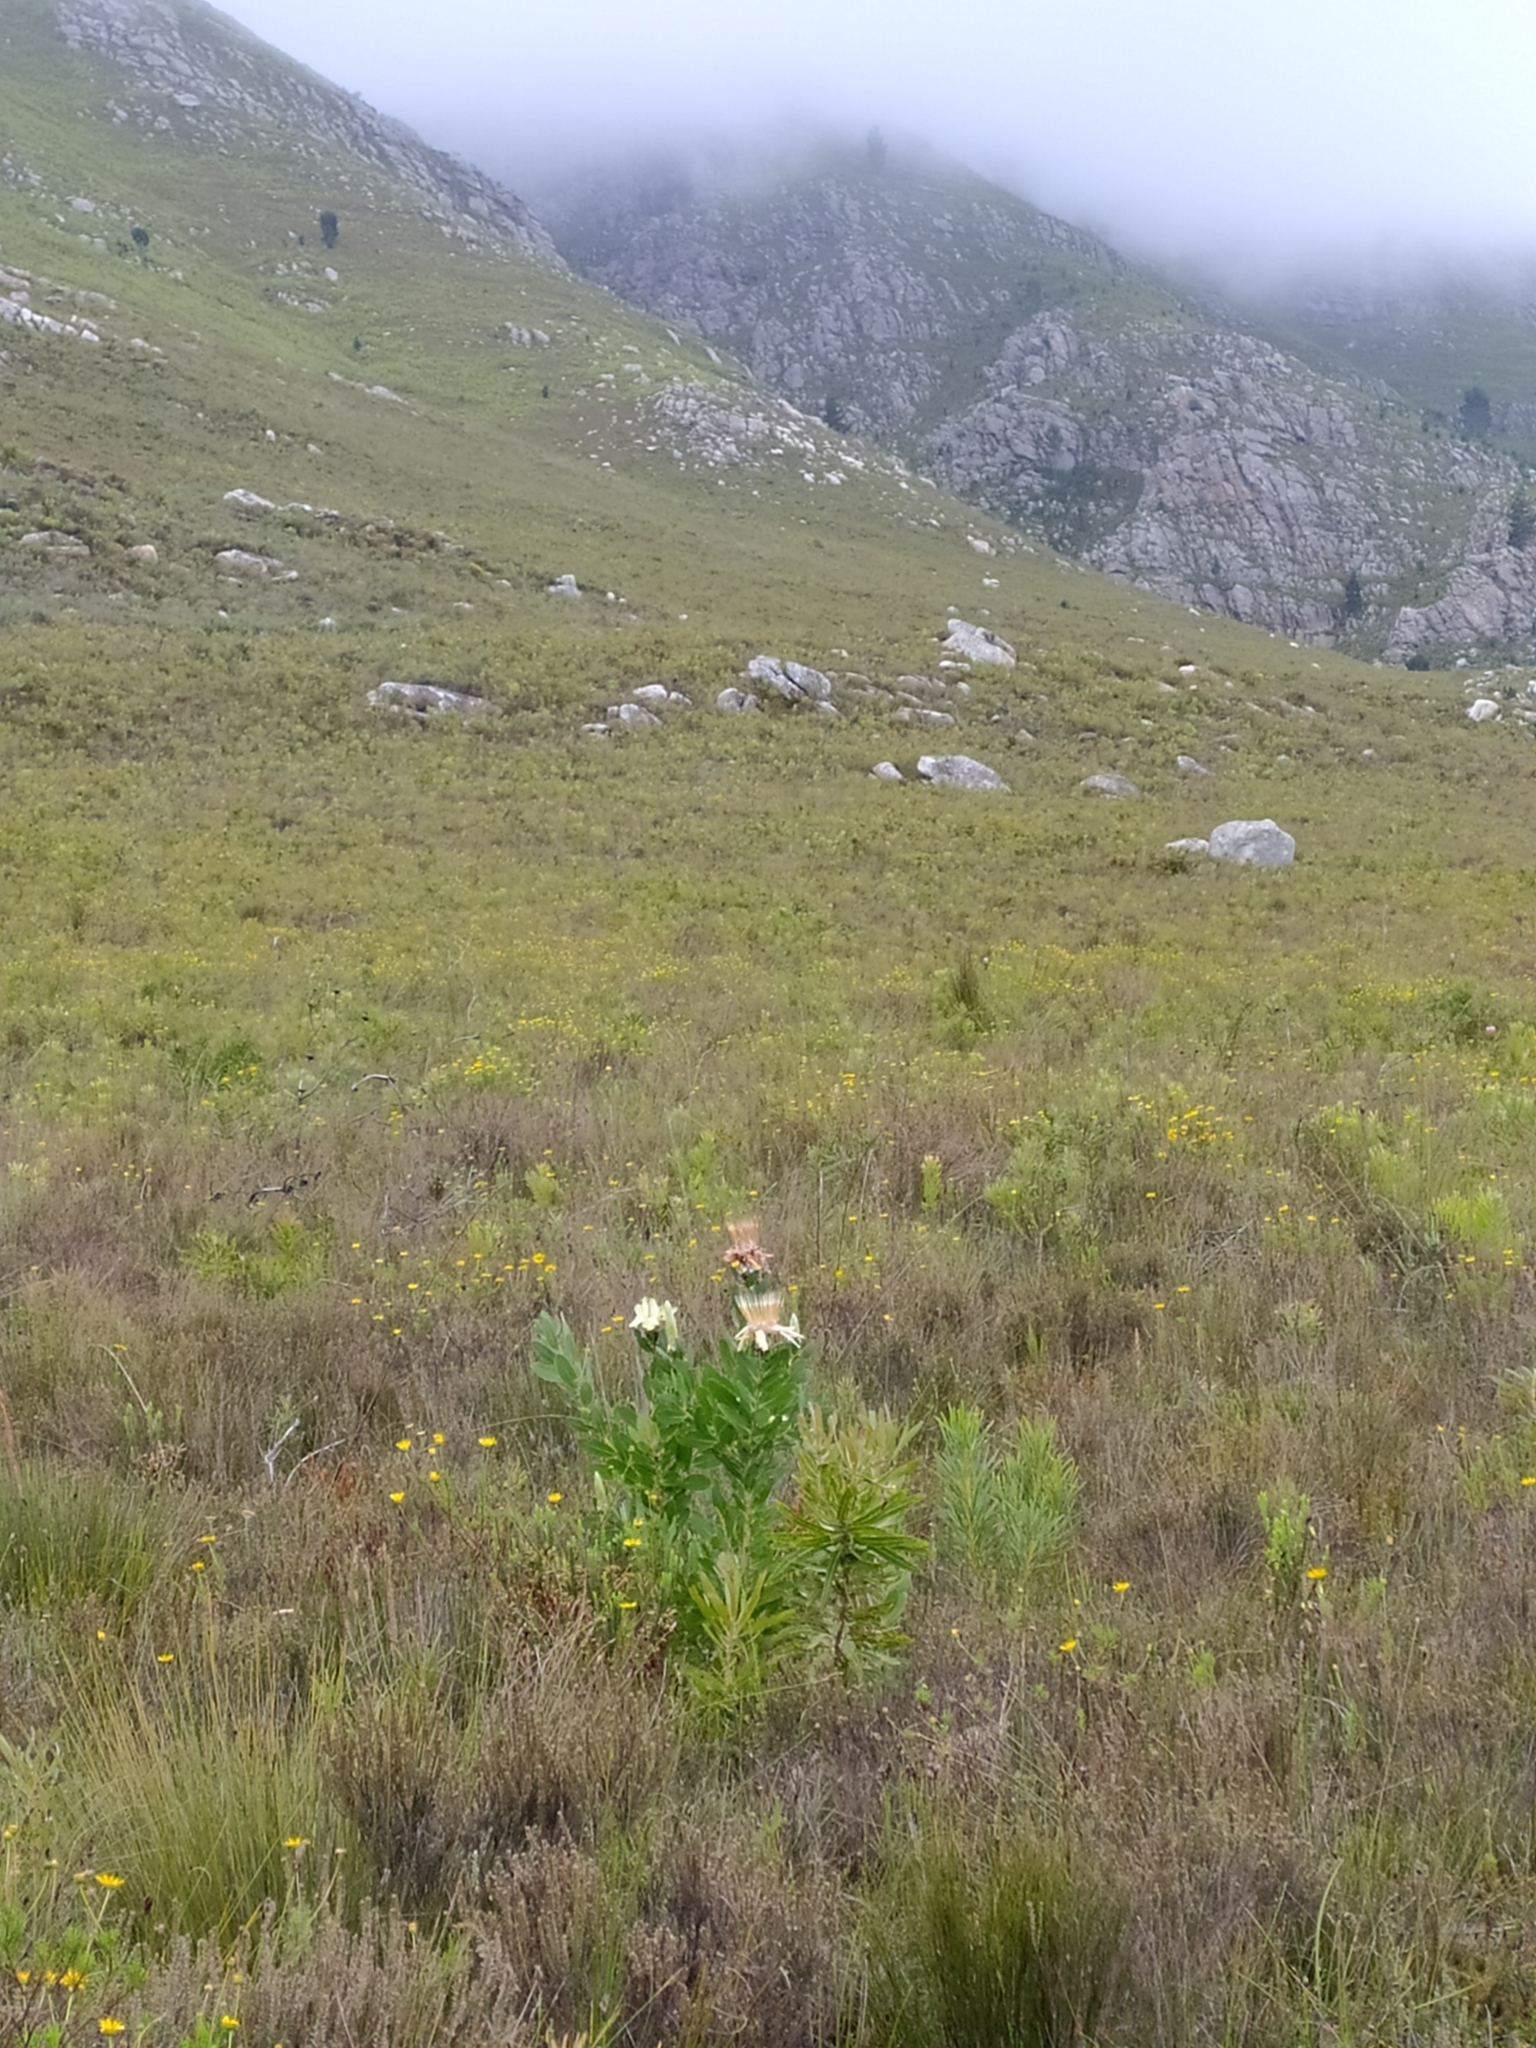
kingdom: Plantae
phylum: Tracheophyta
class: Magnoliopsida
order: Proteales
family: Proteaceae
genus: Protea
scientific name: Protea aurea
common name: Shuttlecock sugarbush
